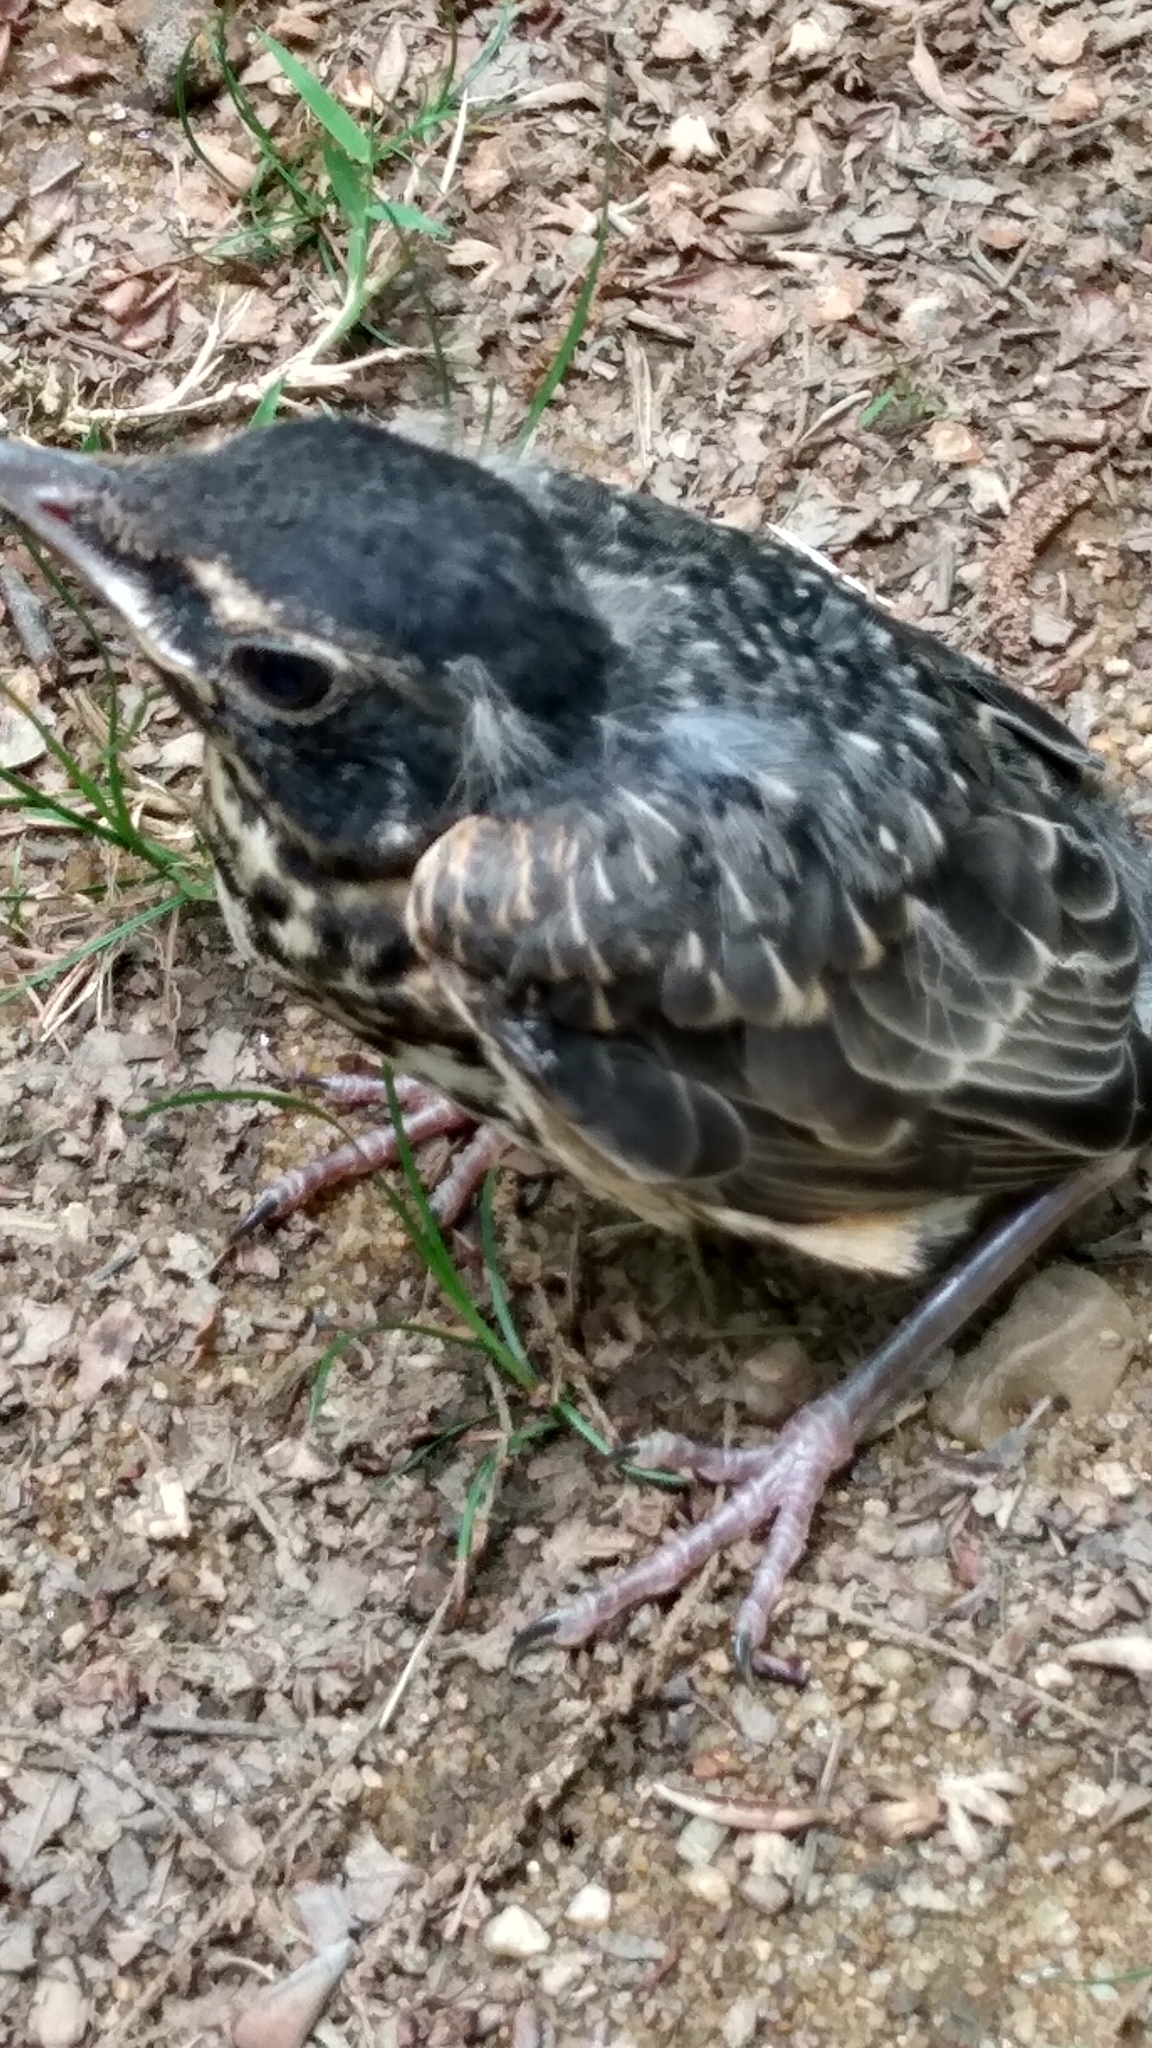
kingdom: Animalia
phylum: Chordata
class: Aves
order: Passeriformes
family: Turdidae
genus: Turdus
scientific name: Turdus migratorius
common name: American robin
